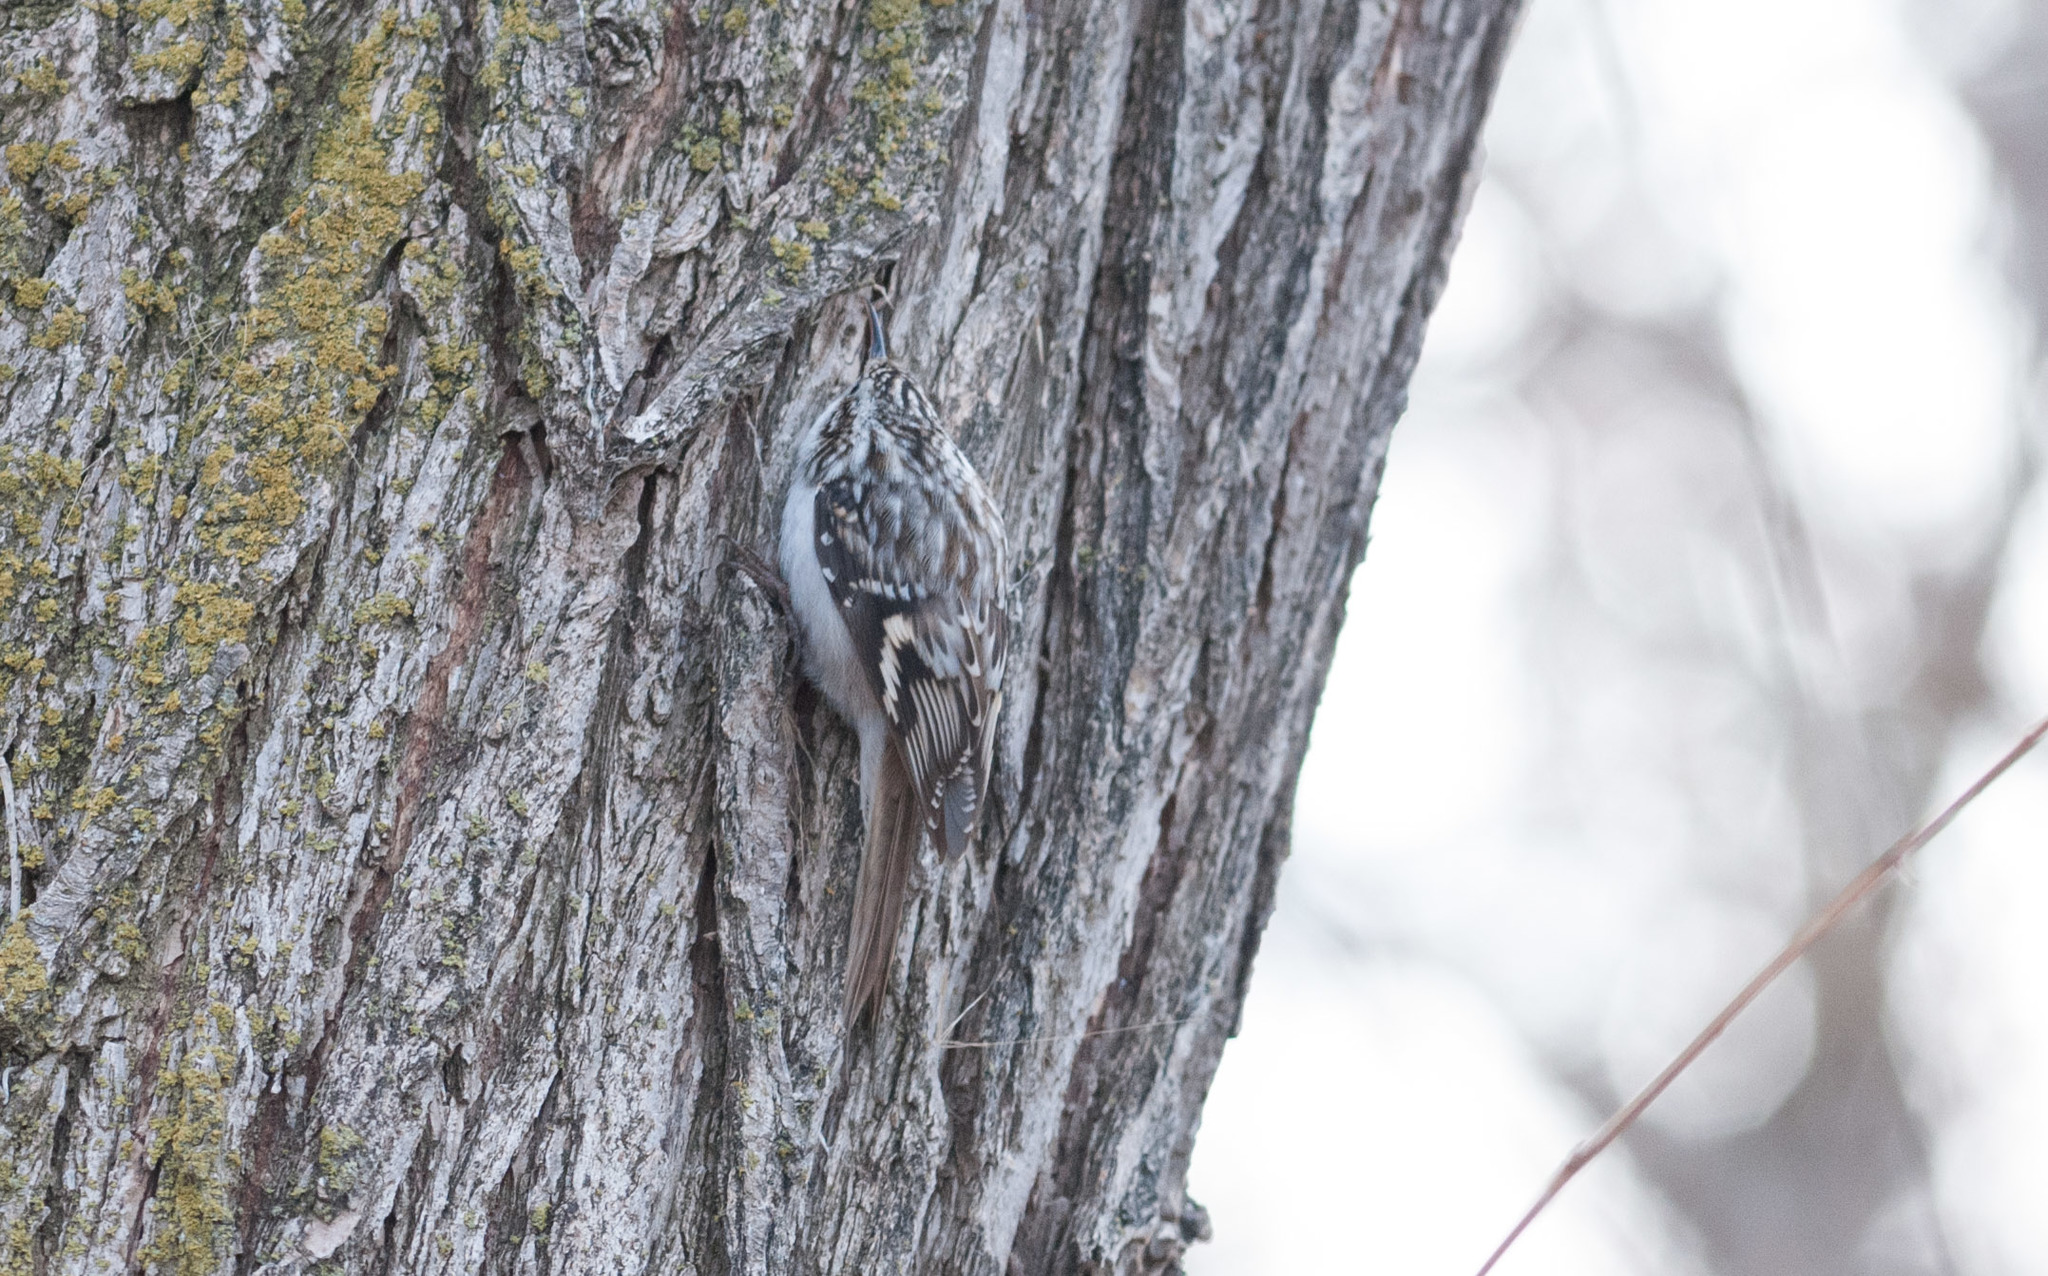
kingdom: Animalia
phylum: Chordata
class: Aves
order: Passeriformes
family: Certhiidae
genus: Certhia
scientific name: Certhia americana
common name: Brown creeper
